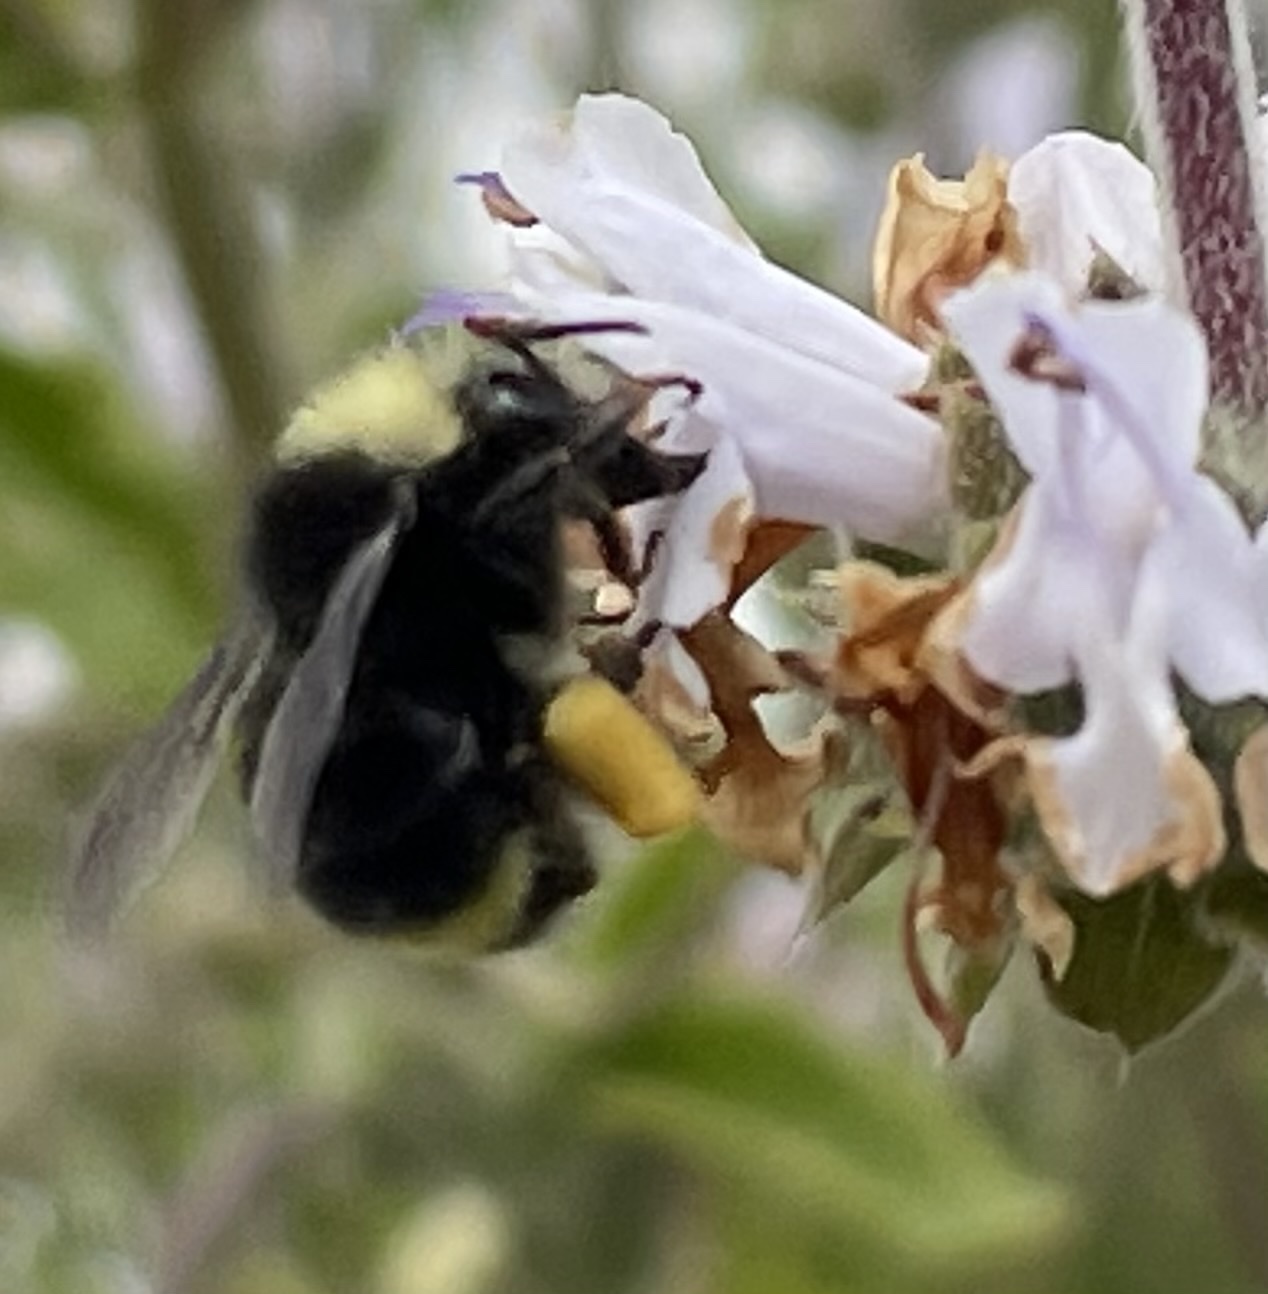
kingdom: Animalia
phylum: Arthropoda
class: Insecta
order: Hymenoptera
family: Apidae
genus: Bombus
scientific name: Bombus vosnesenskii
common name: Vosnesensky bumble bee
